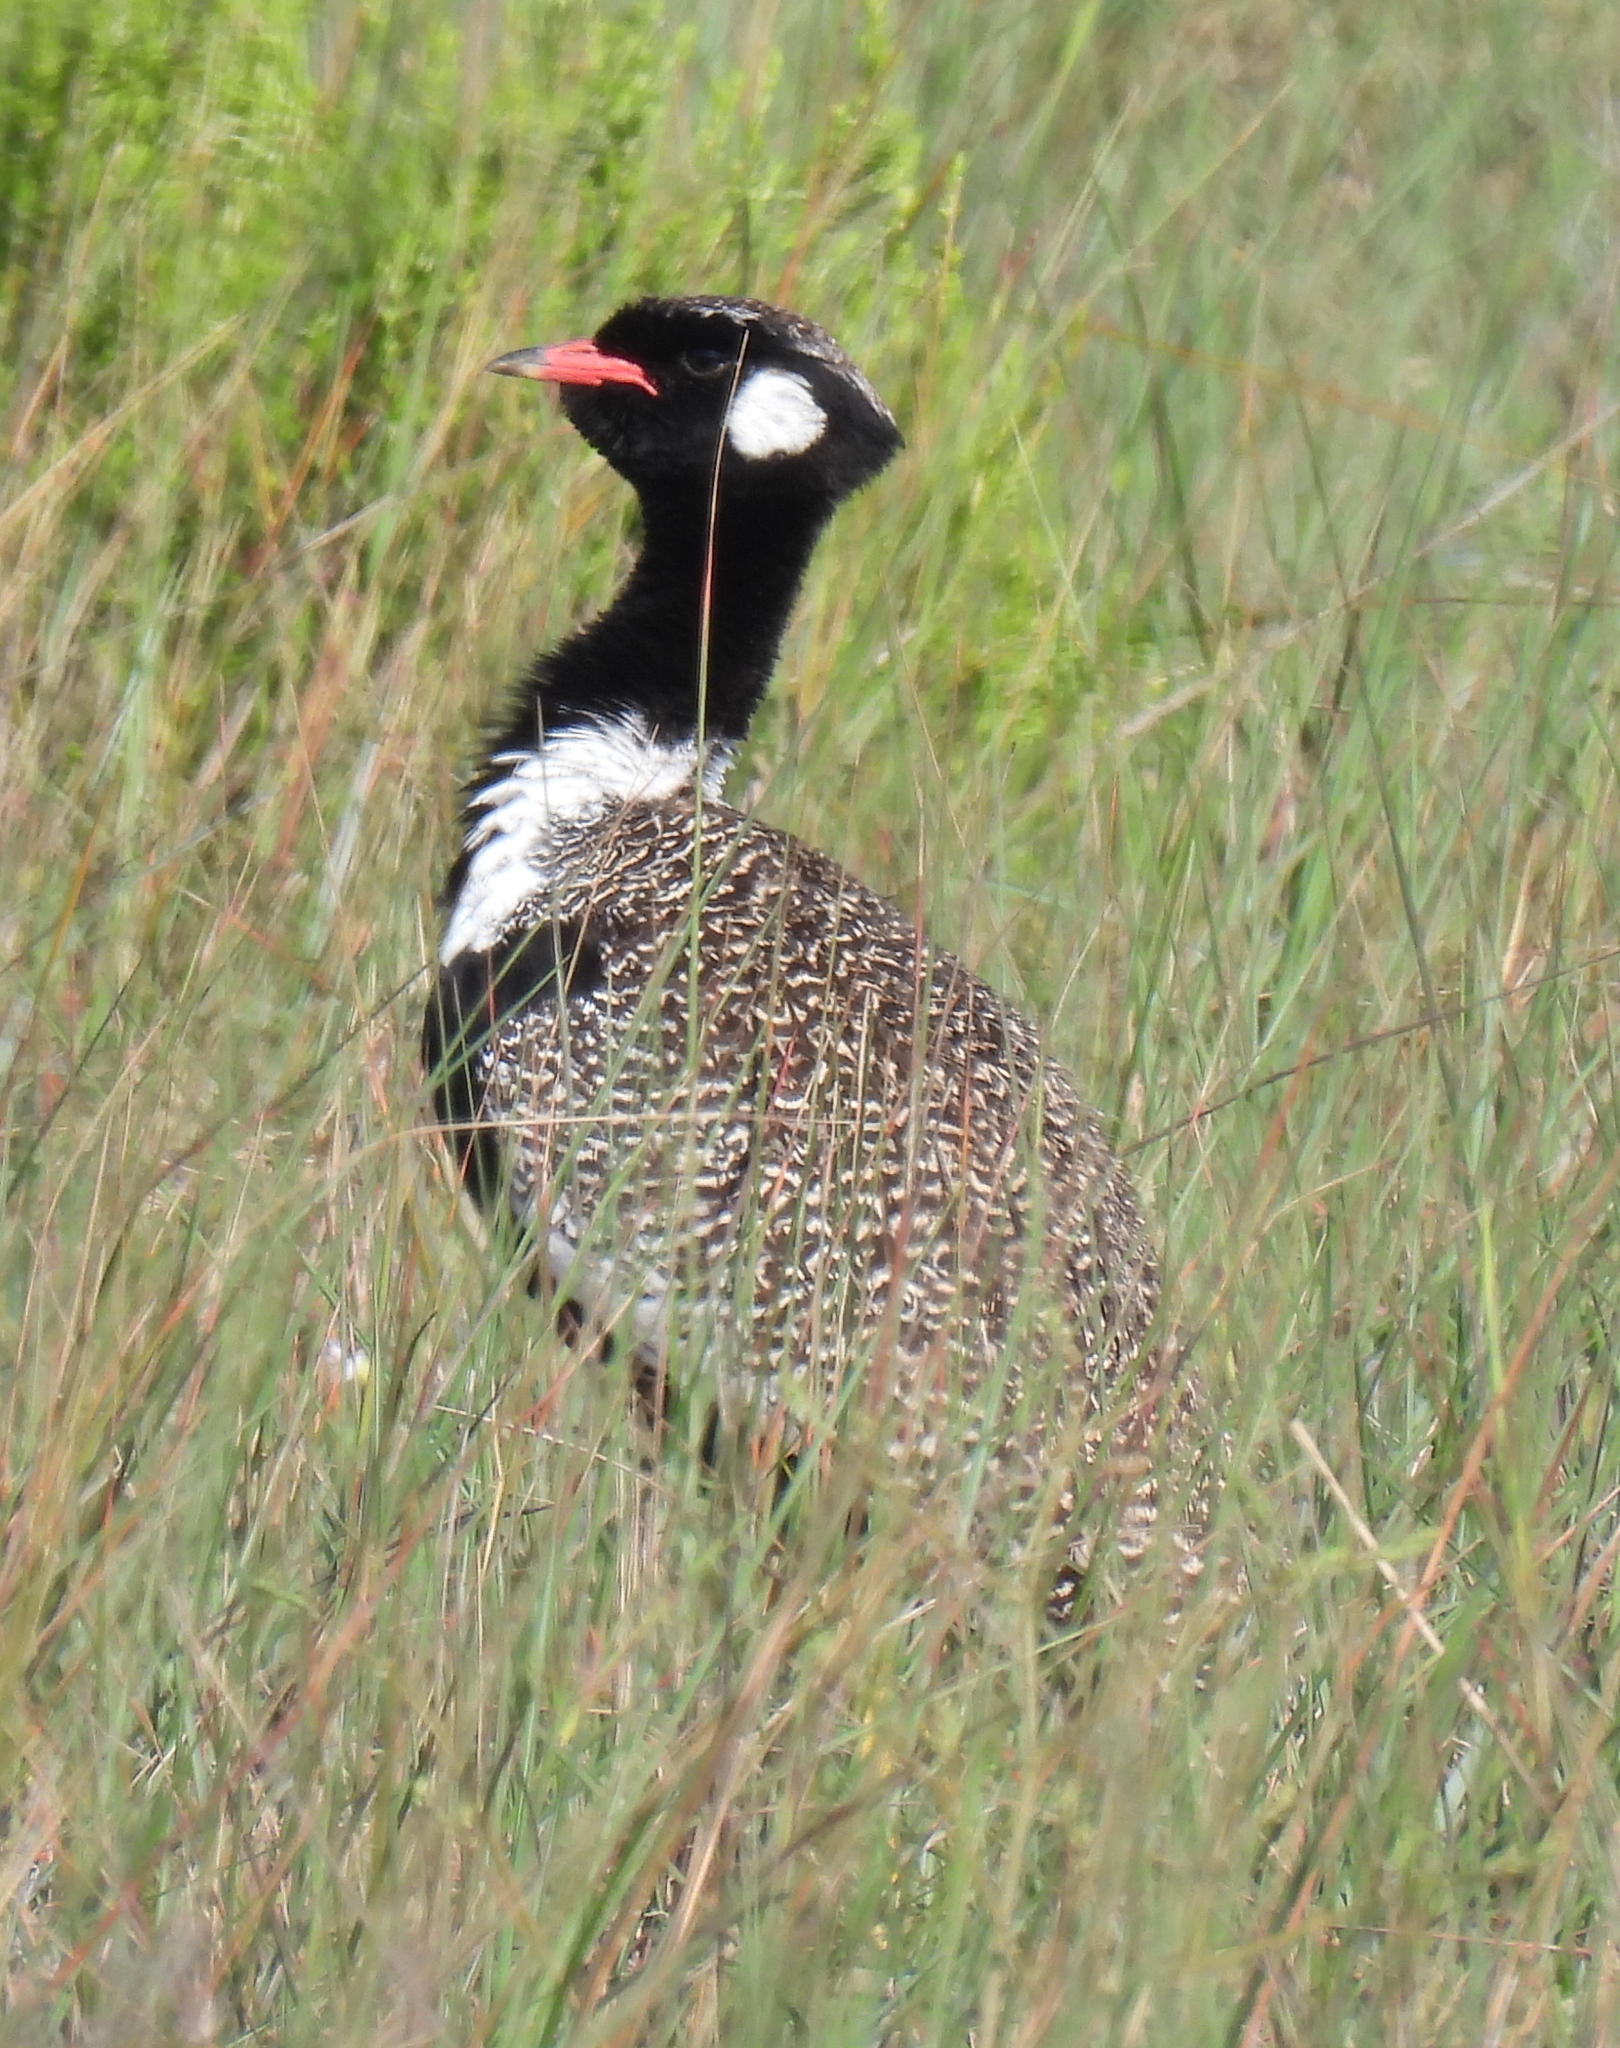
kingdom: Animalia
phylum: Chordata
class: Aves
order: Otidiformes
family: Otididae
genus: Afrotis
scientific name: Afrotis afra
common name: Southern black korhaan
